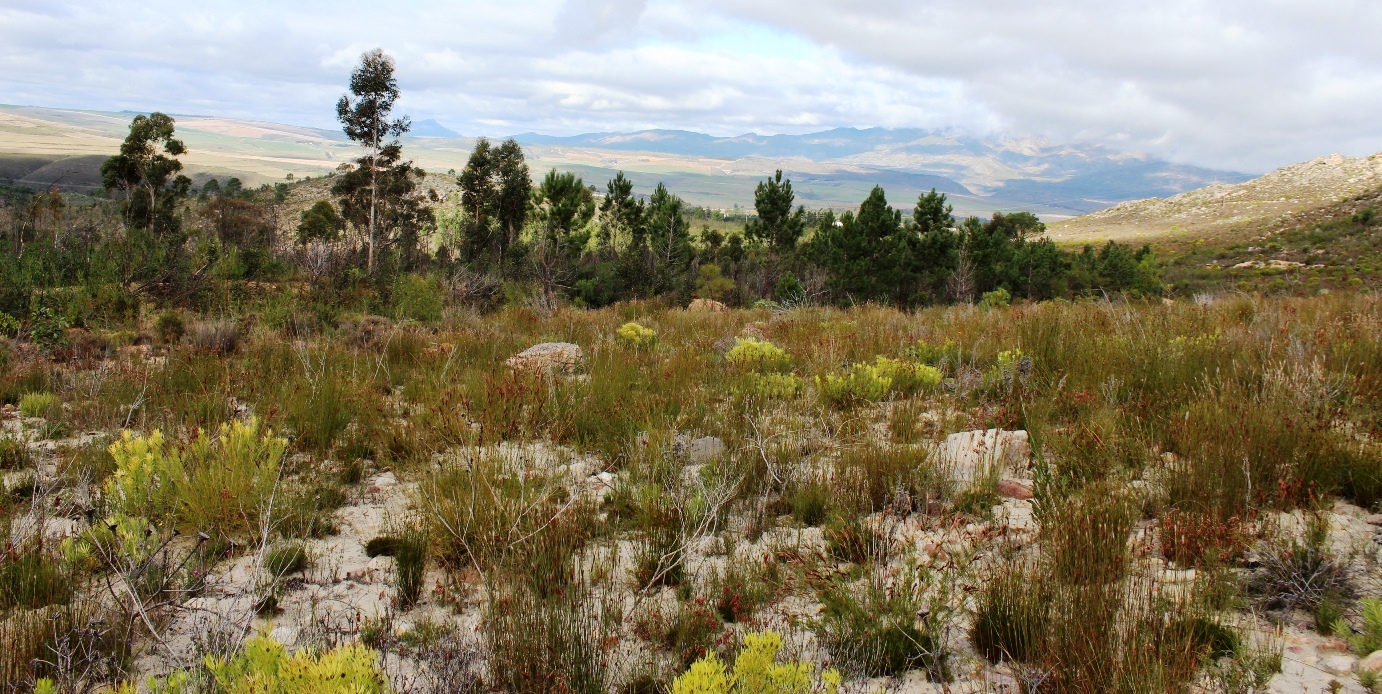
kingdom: Plantae
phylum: Tracheophyta
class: Magnoliopsida
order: Proteales
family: Proteaceae
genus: Leucadendron
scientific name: Leucadendron salignum
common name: Common sunshine conebush
